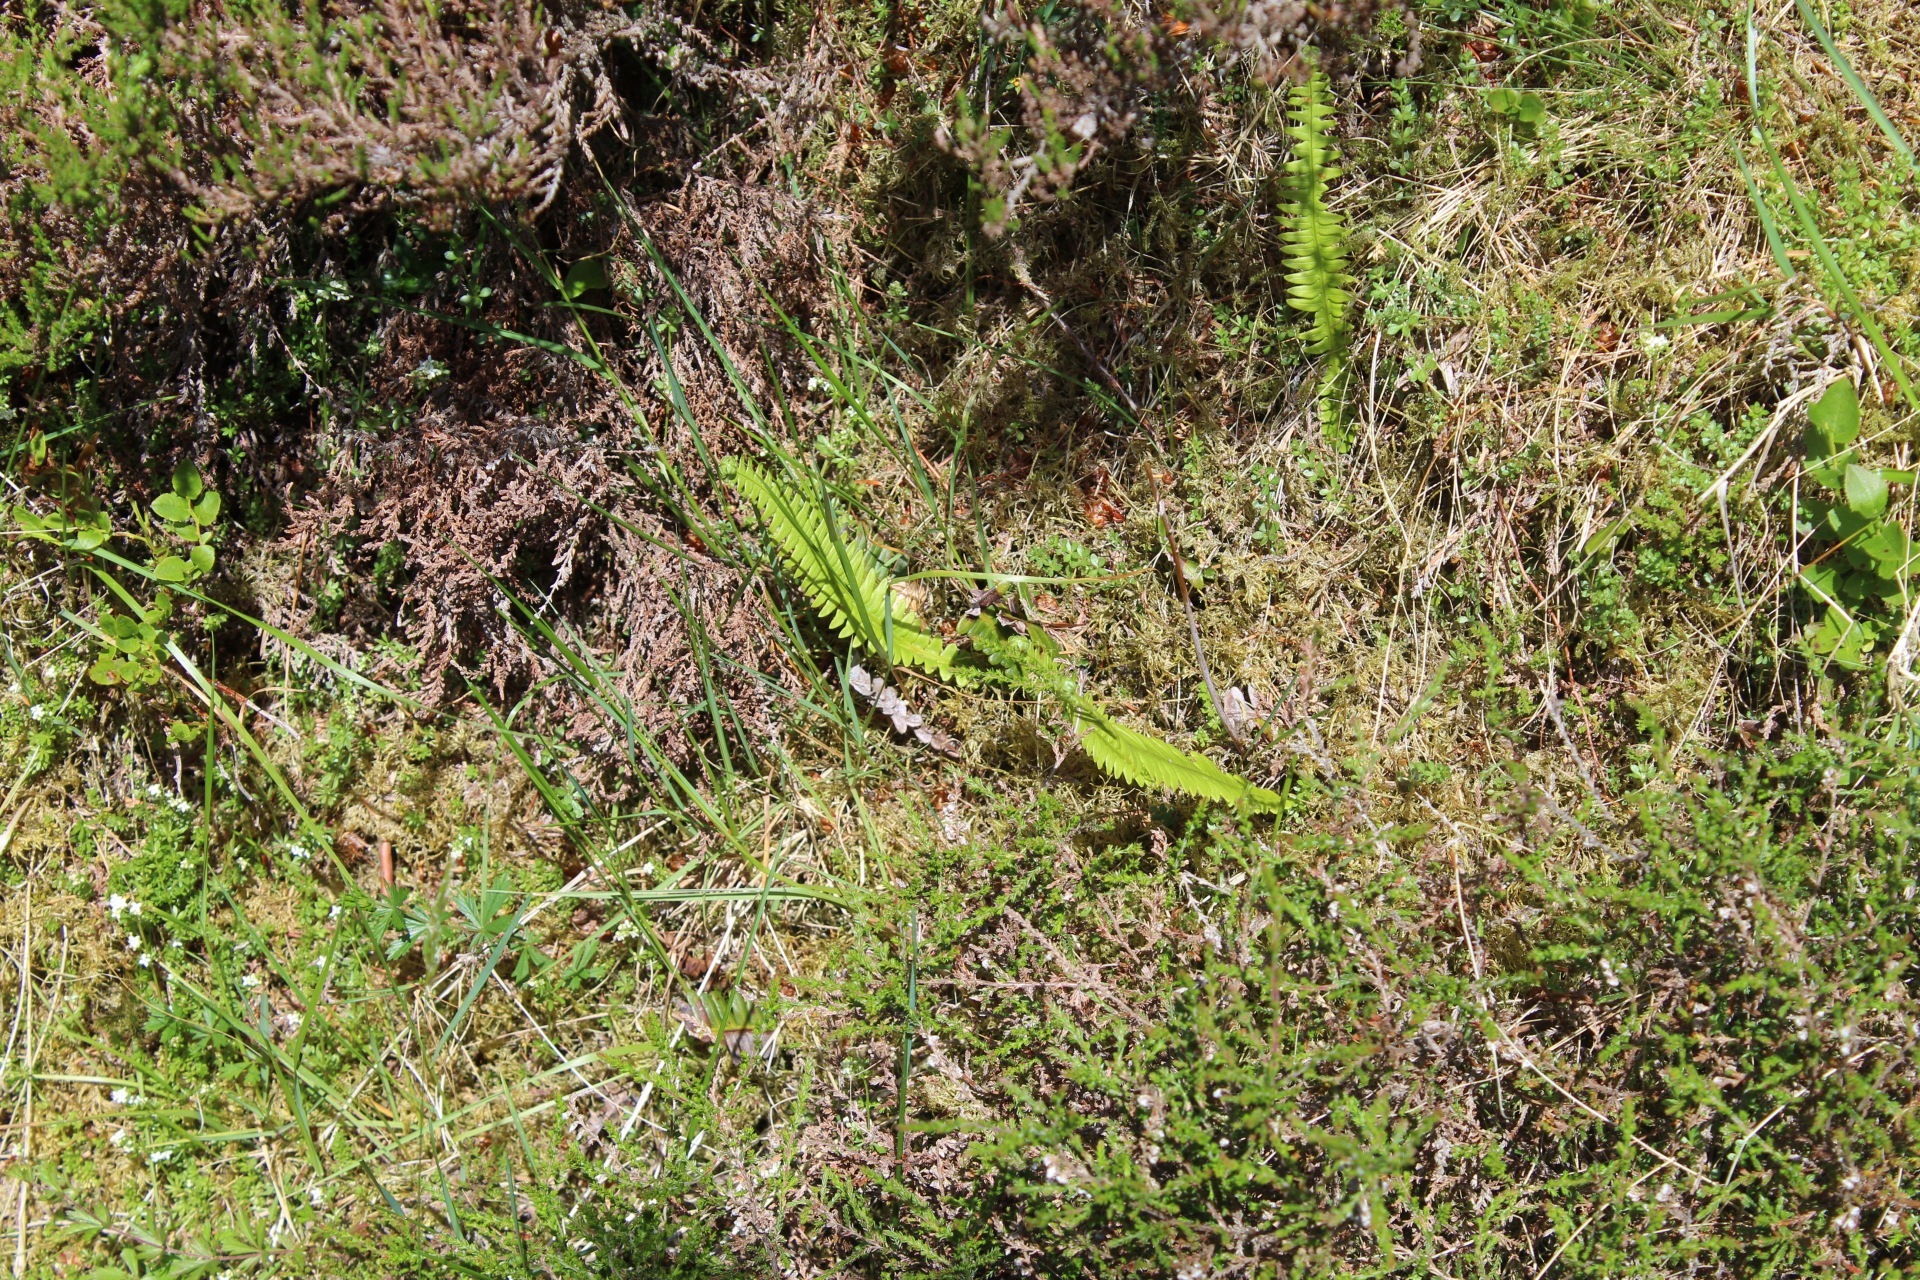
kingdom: Plantae
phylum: Tracheophyta
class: Polypodiopsida
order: Polypodiales
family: Blechnaceae
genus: Struthiopteris
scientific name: Struthiopteris spicant
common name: Deer fern
